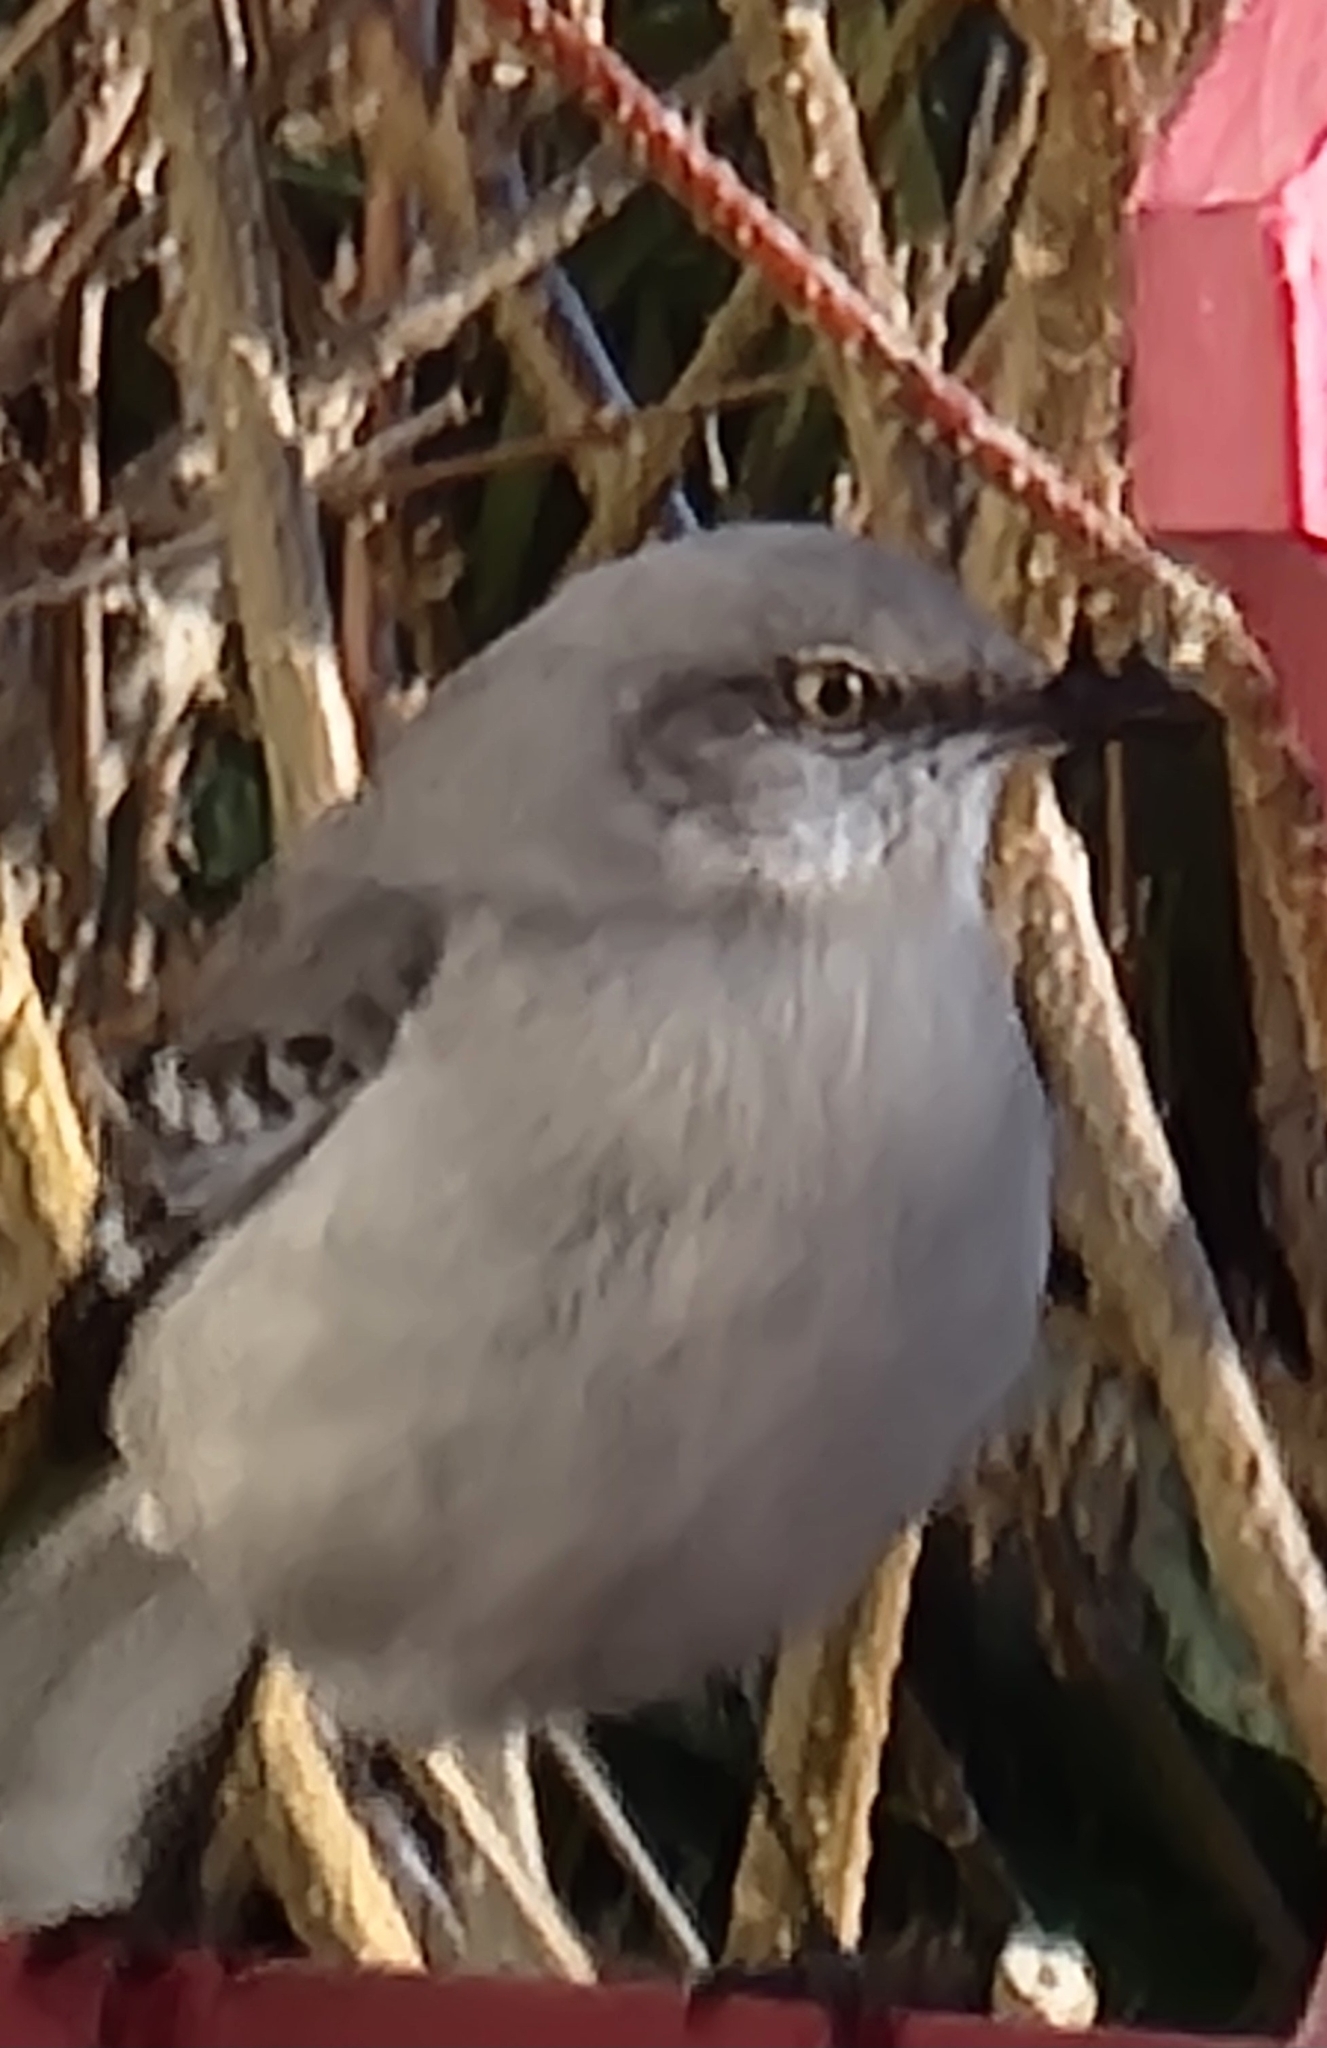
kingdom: Animalia
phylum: Chordata
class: Aves
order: Passeriformes
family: Mimidae
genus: Mimus
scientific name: Mimus polyglottos
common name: Northern mockingbird
